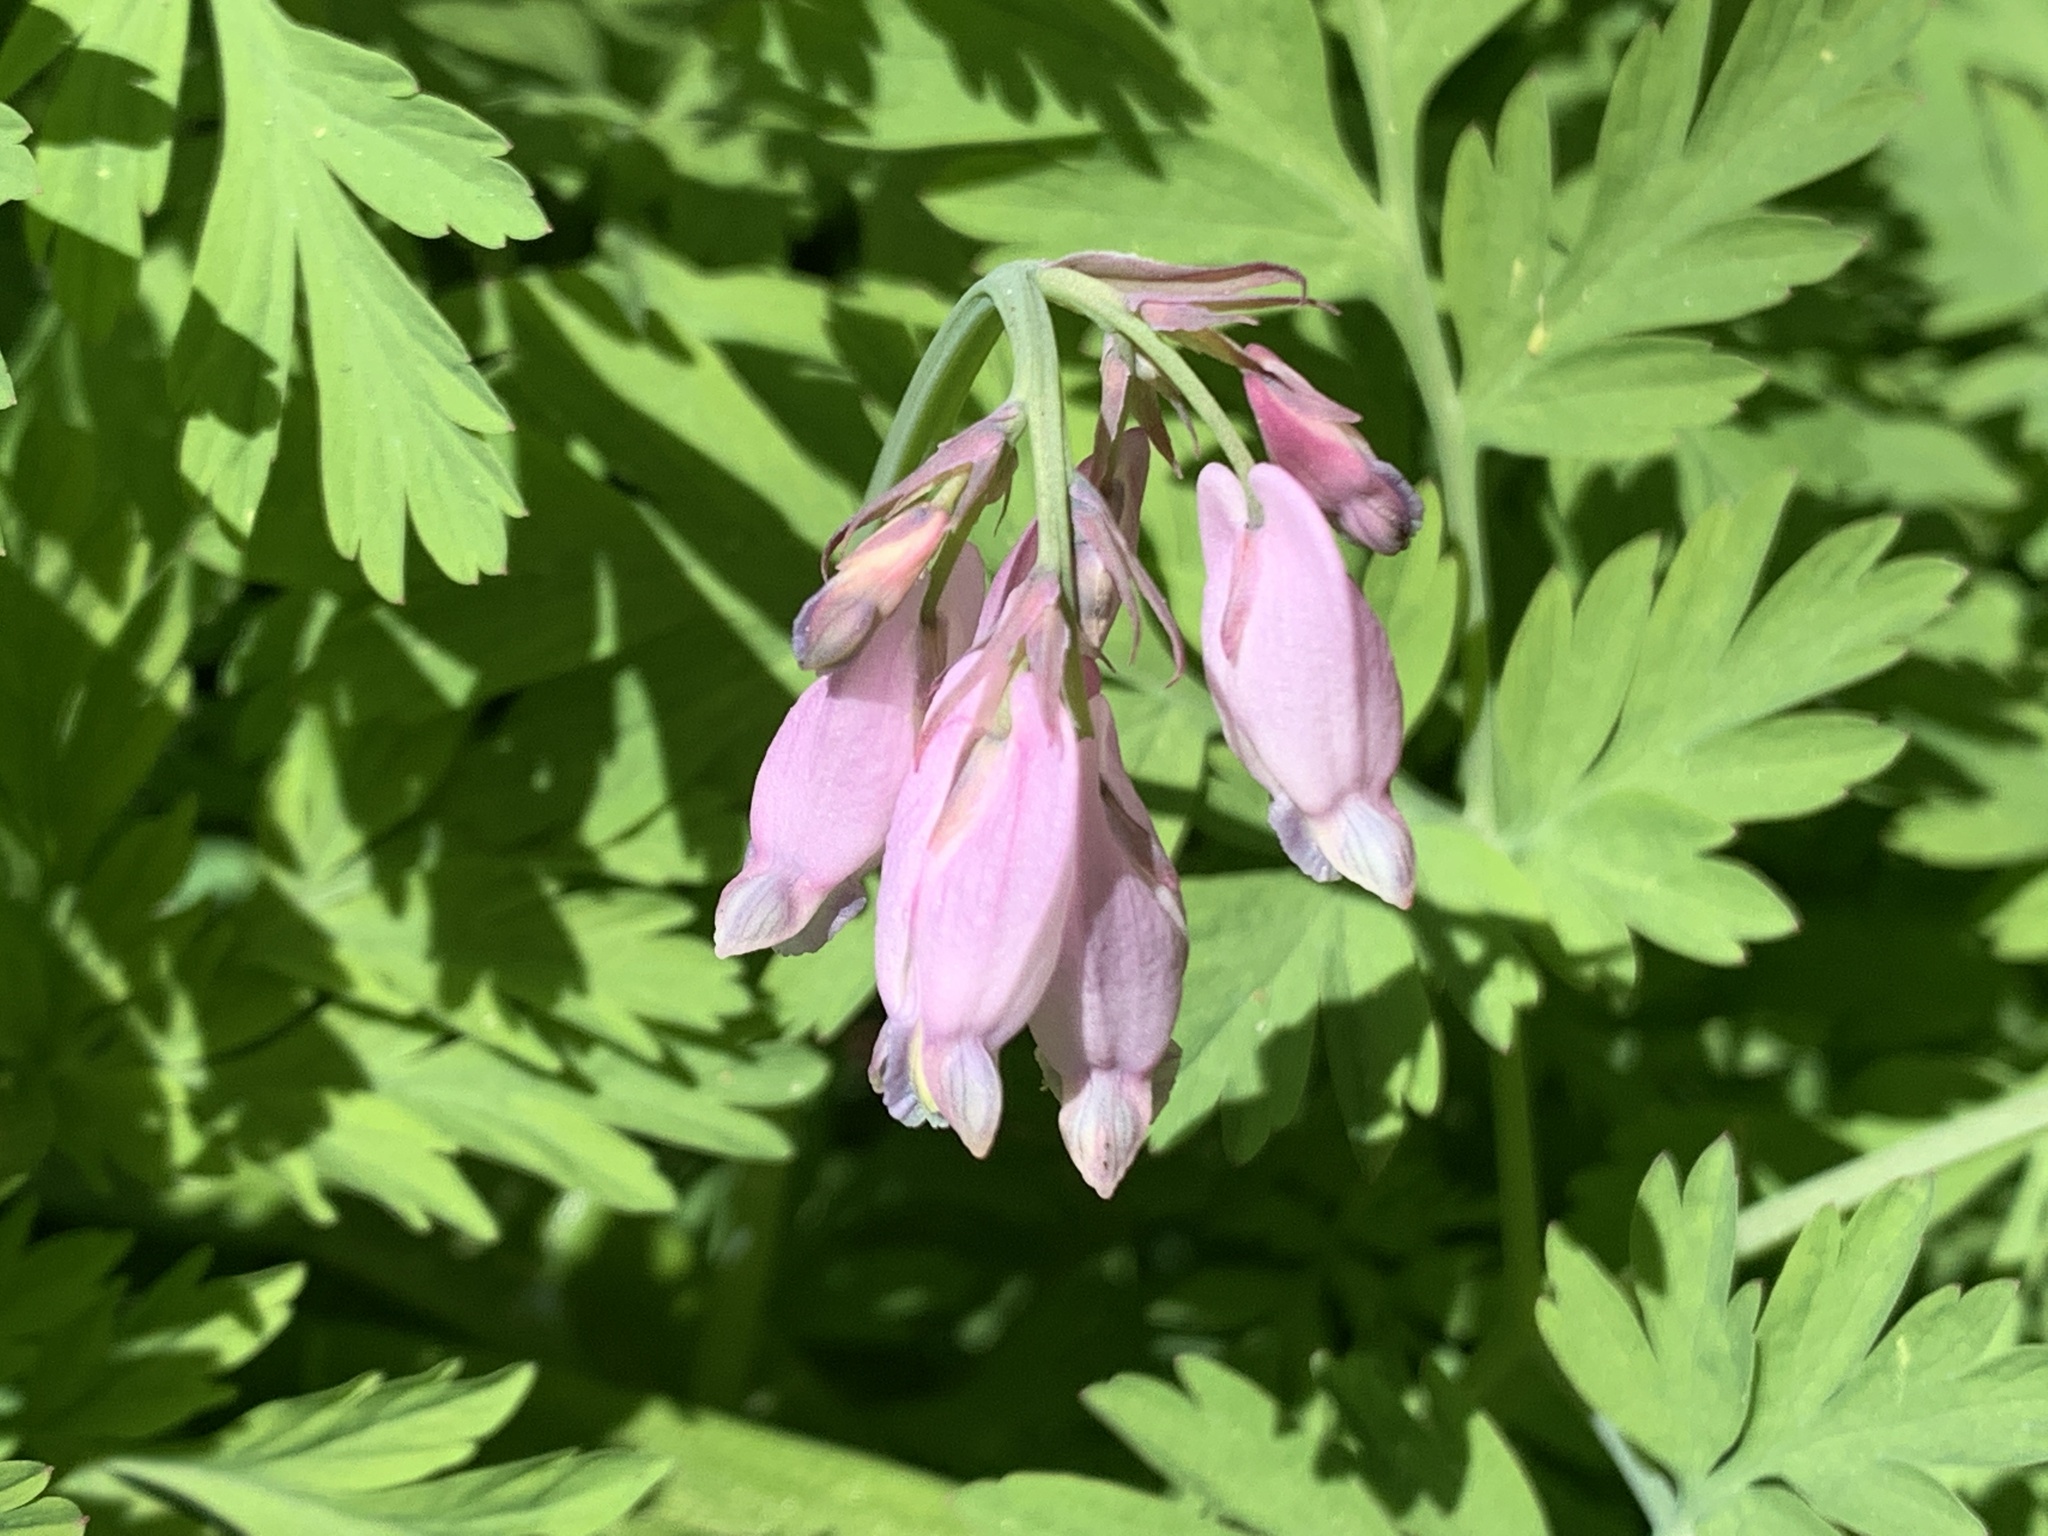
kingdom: Plantae
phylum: Tracheophyta
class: Magnoliopsida
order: Ranunculales
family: Papaveraceae
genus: Dicentra
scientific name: Dicentra formosa
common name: Bleeding-heart
